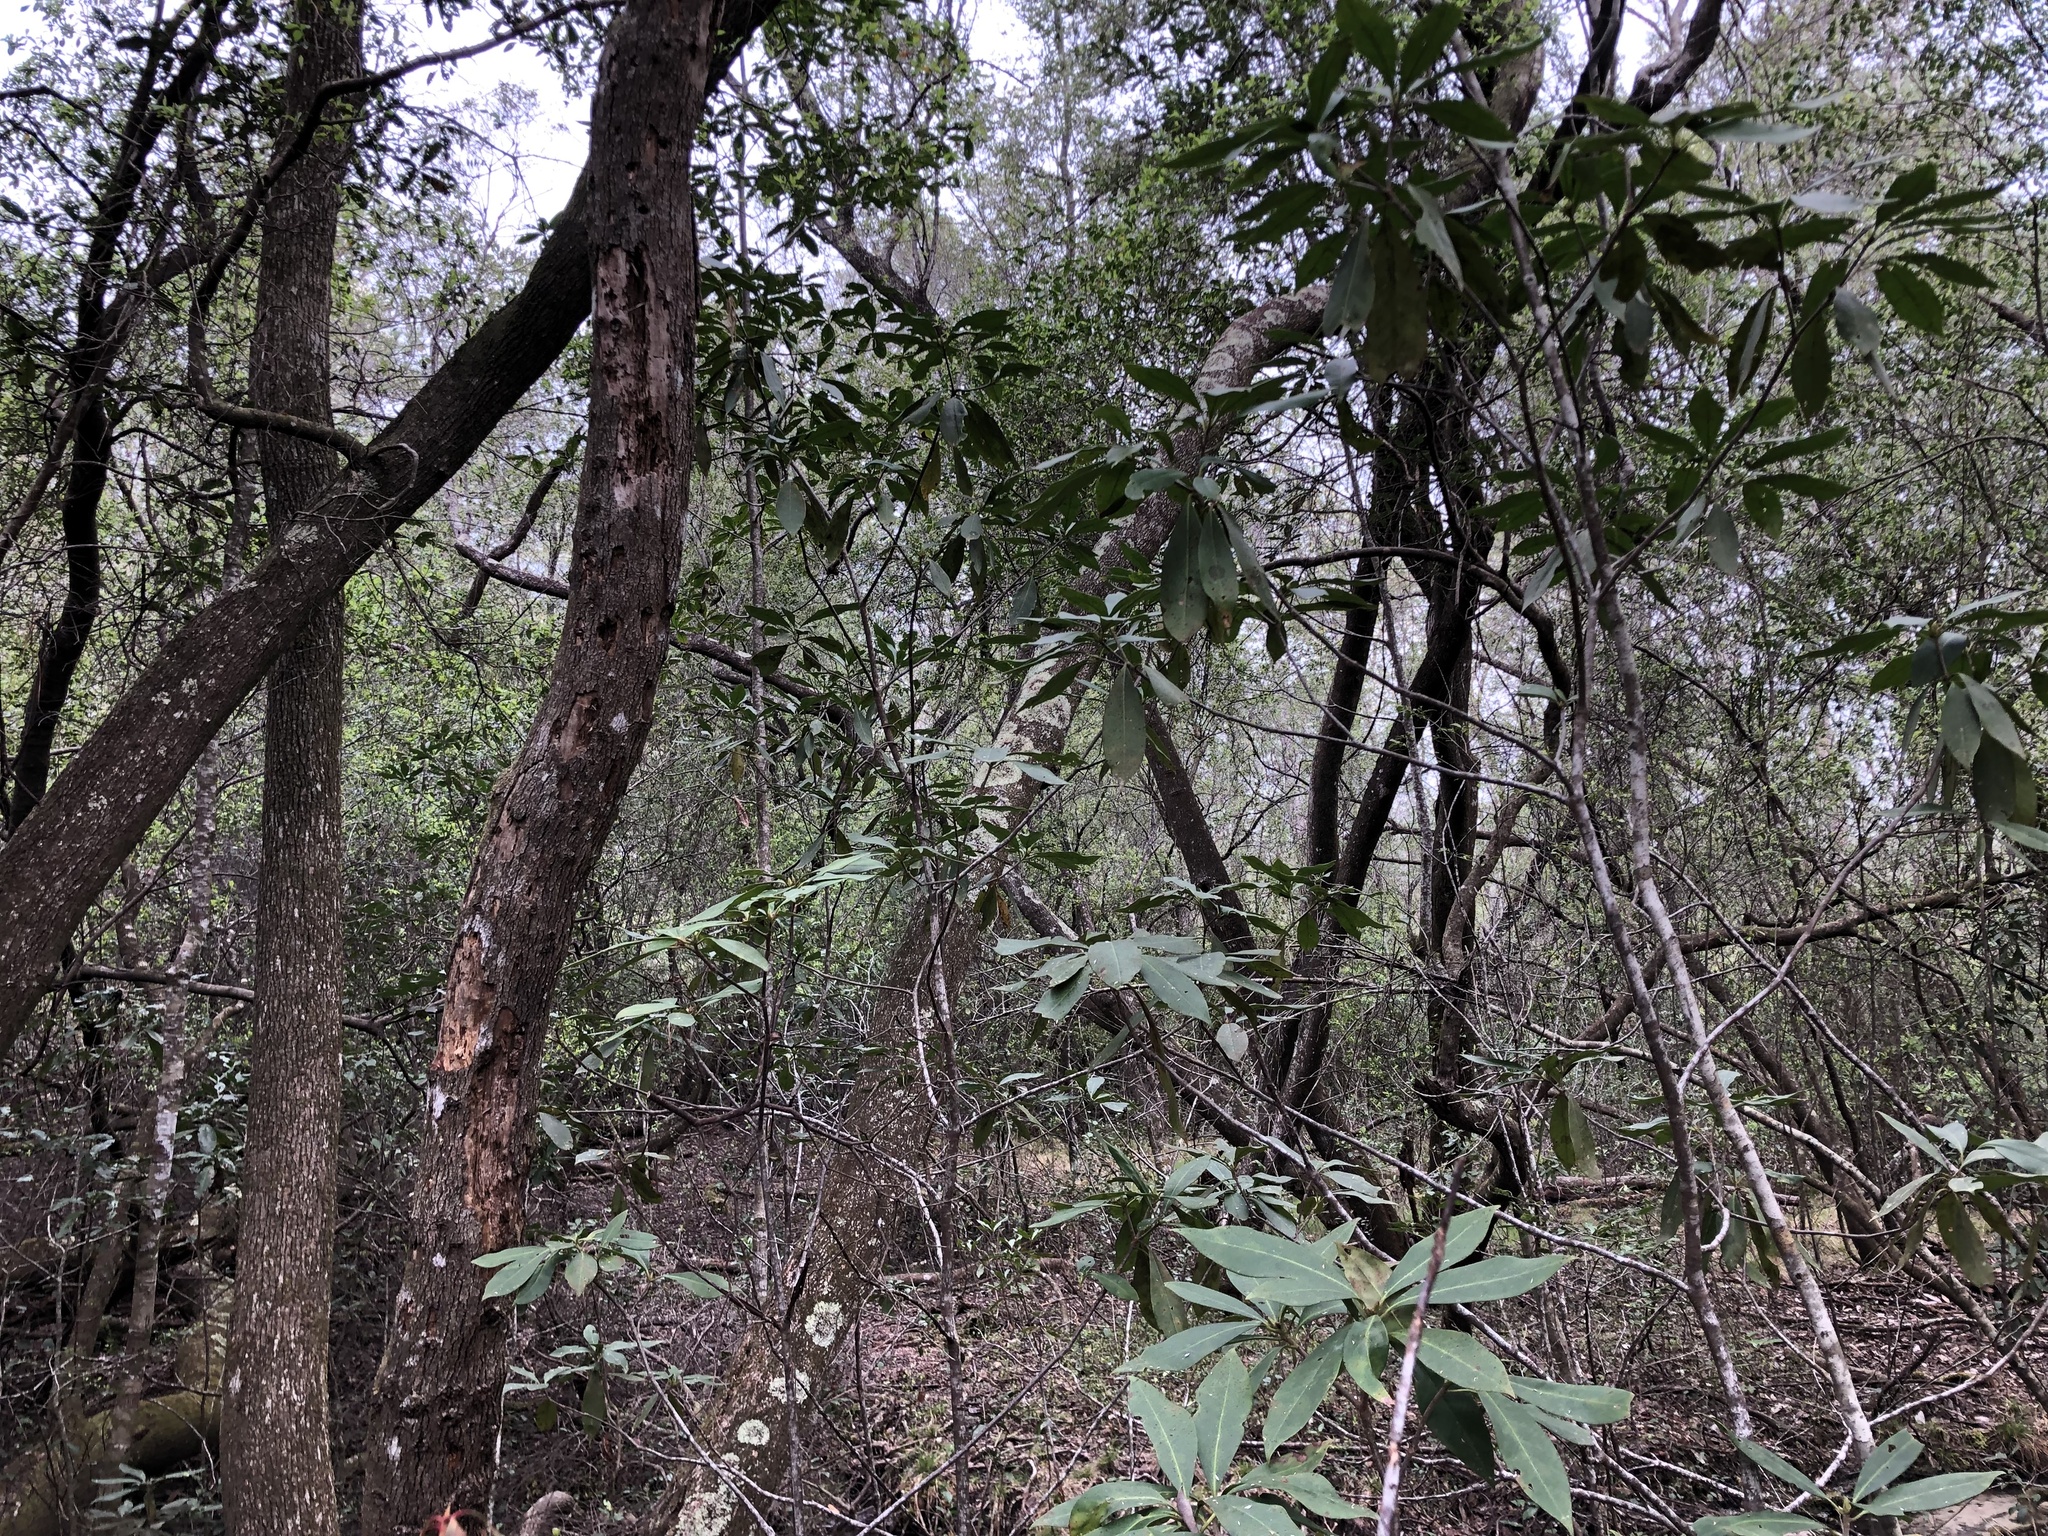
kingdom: Plantae
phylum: Tracheophyta
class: Magnoliopsida
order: Austrobaileyales
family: Schisandraceae
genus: Illicium
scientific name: Illicium floridanum
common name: Florida anisetree
